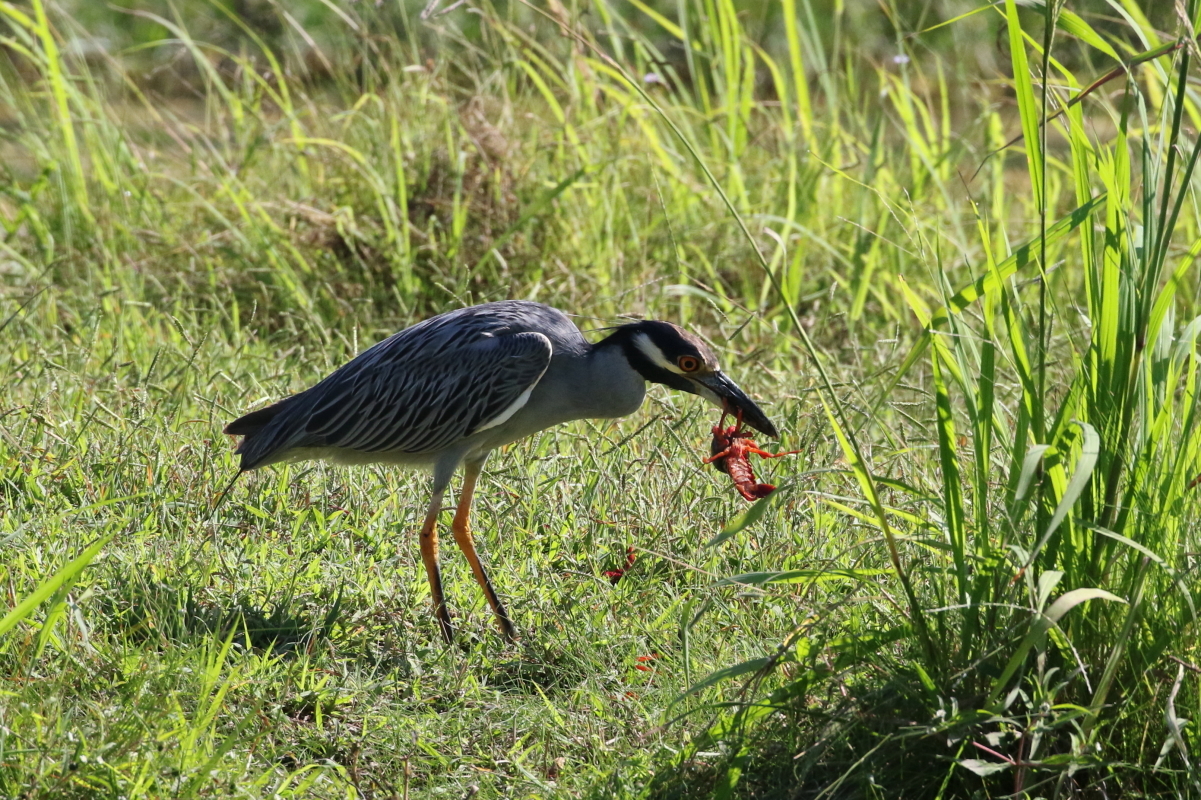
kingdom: Animalia
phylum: Chordata
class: Aves
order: Pelecaniformes
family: Ardeidae
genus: Nyctanassa
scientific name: Nyctanassa violacea
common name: Yellow-crowned night heron
